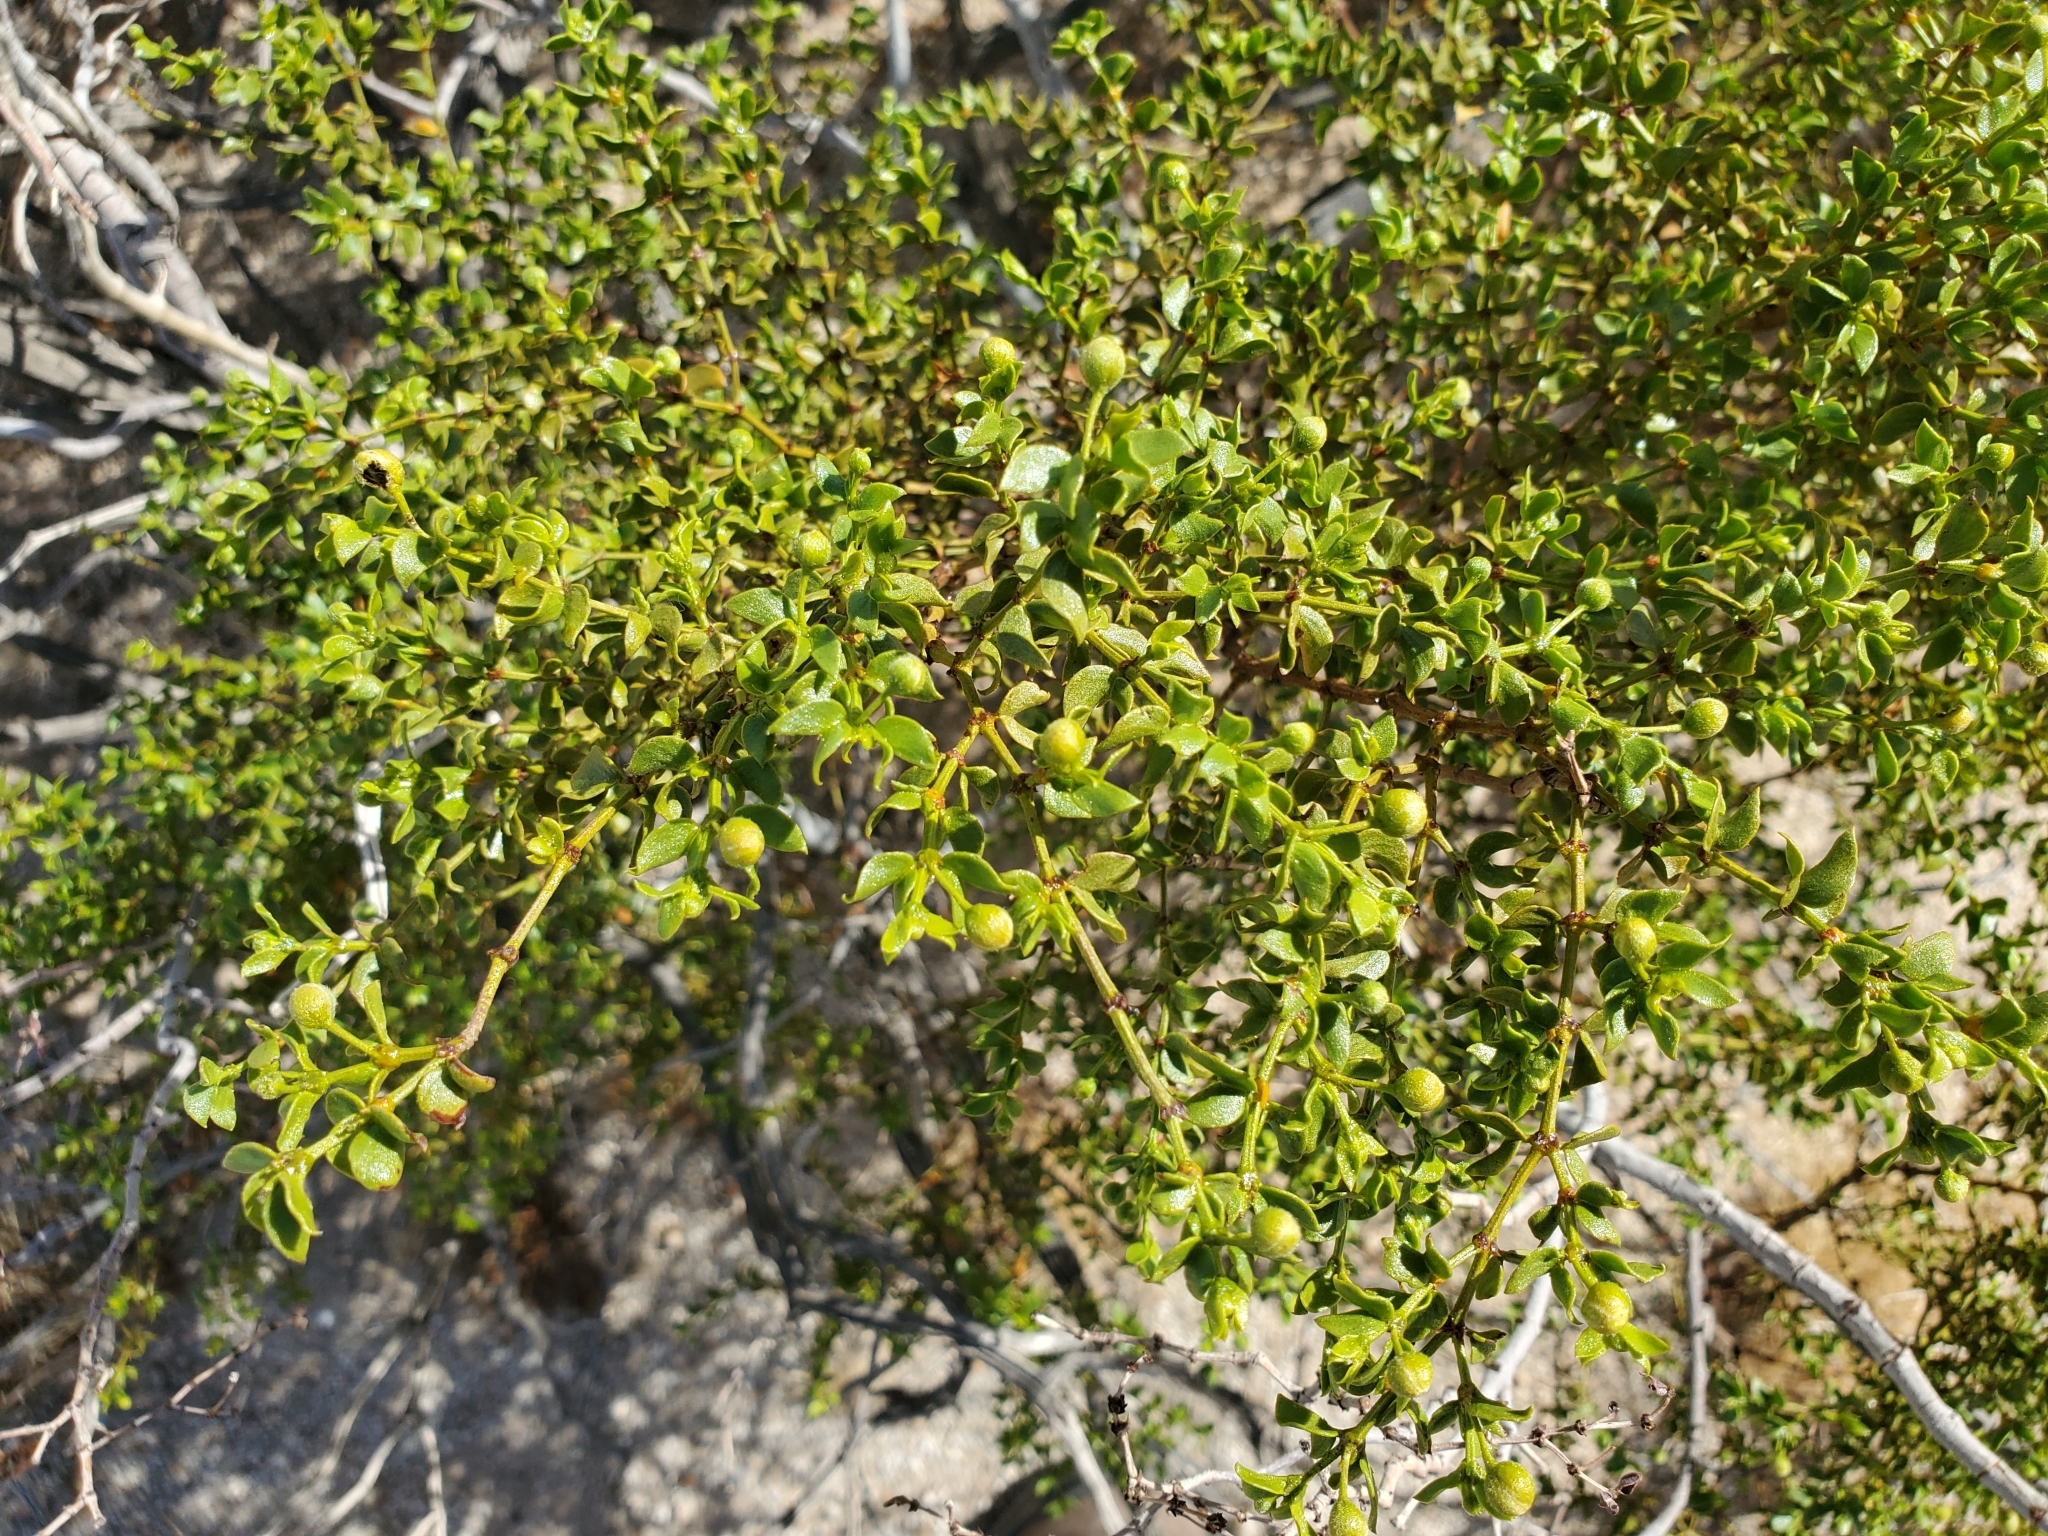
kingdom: Plantae
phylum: Tracheophyta
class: Magnoliopsida
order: Zygophyllales
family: Zygophyllaceae
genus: Larrea
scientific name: Larrea tridentata
